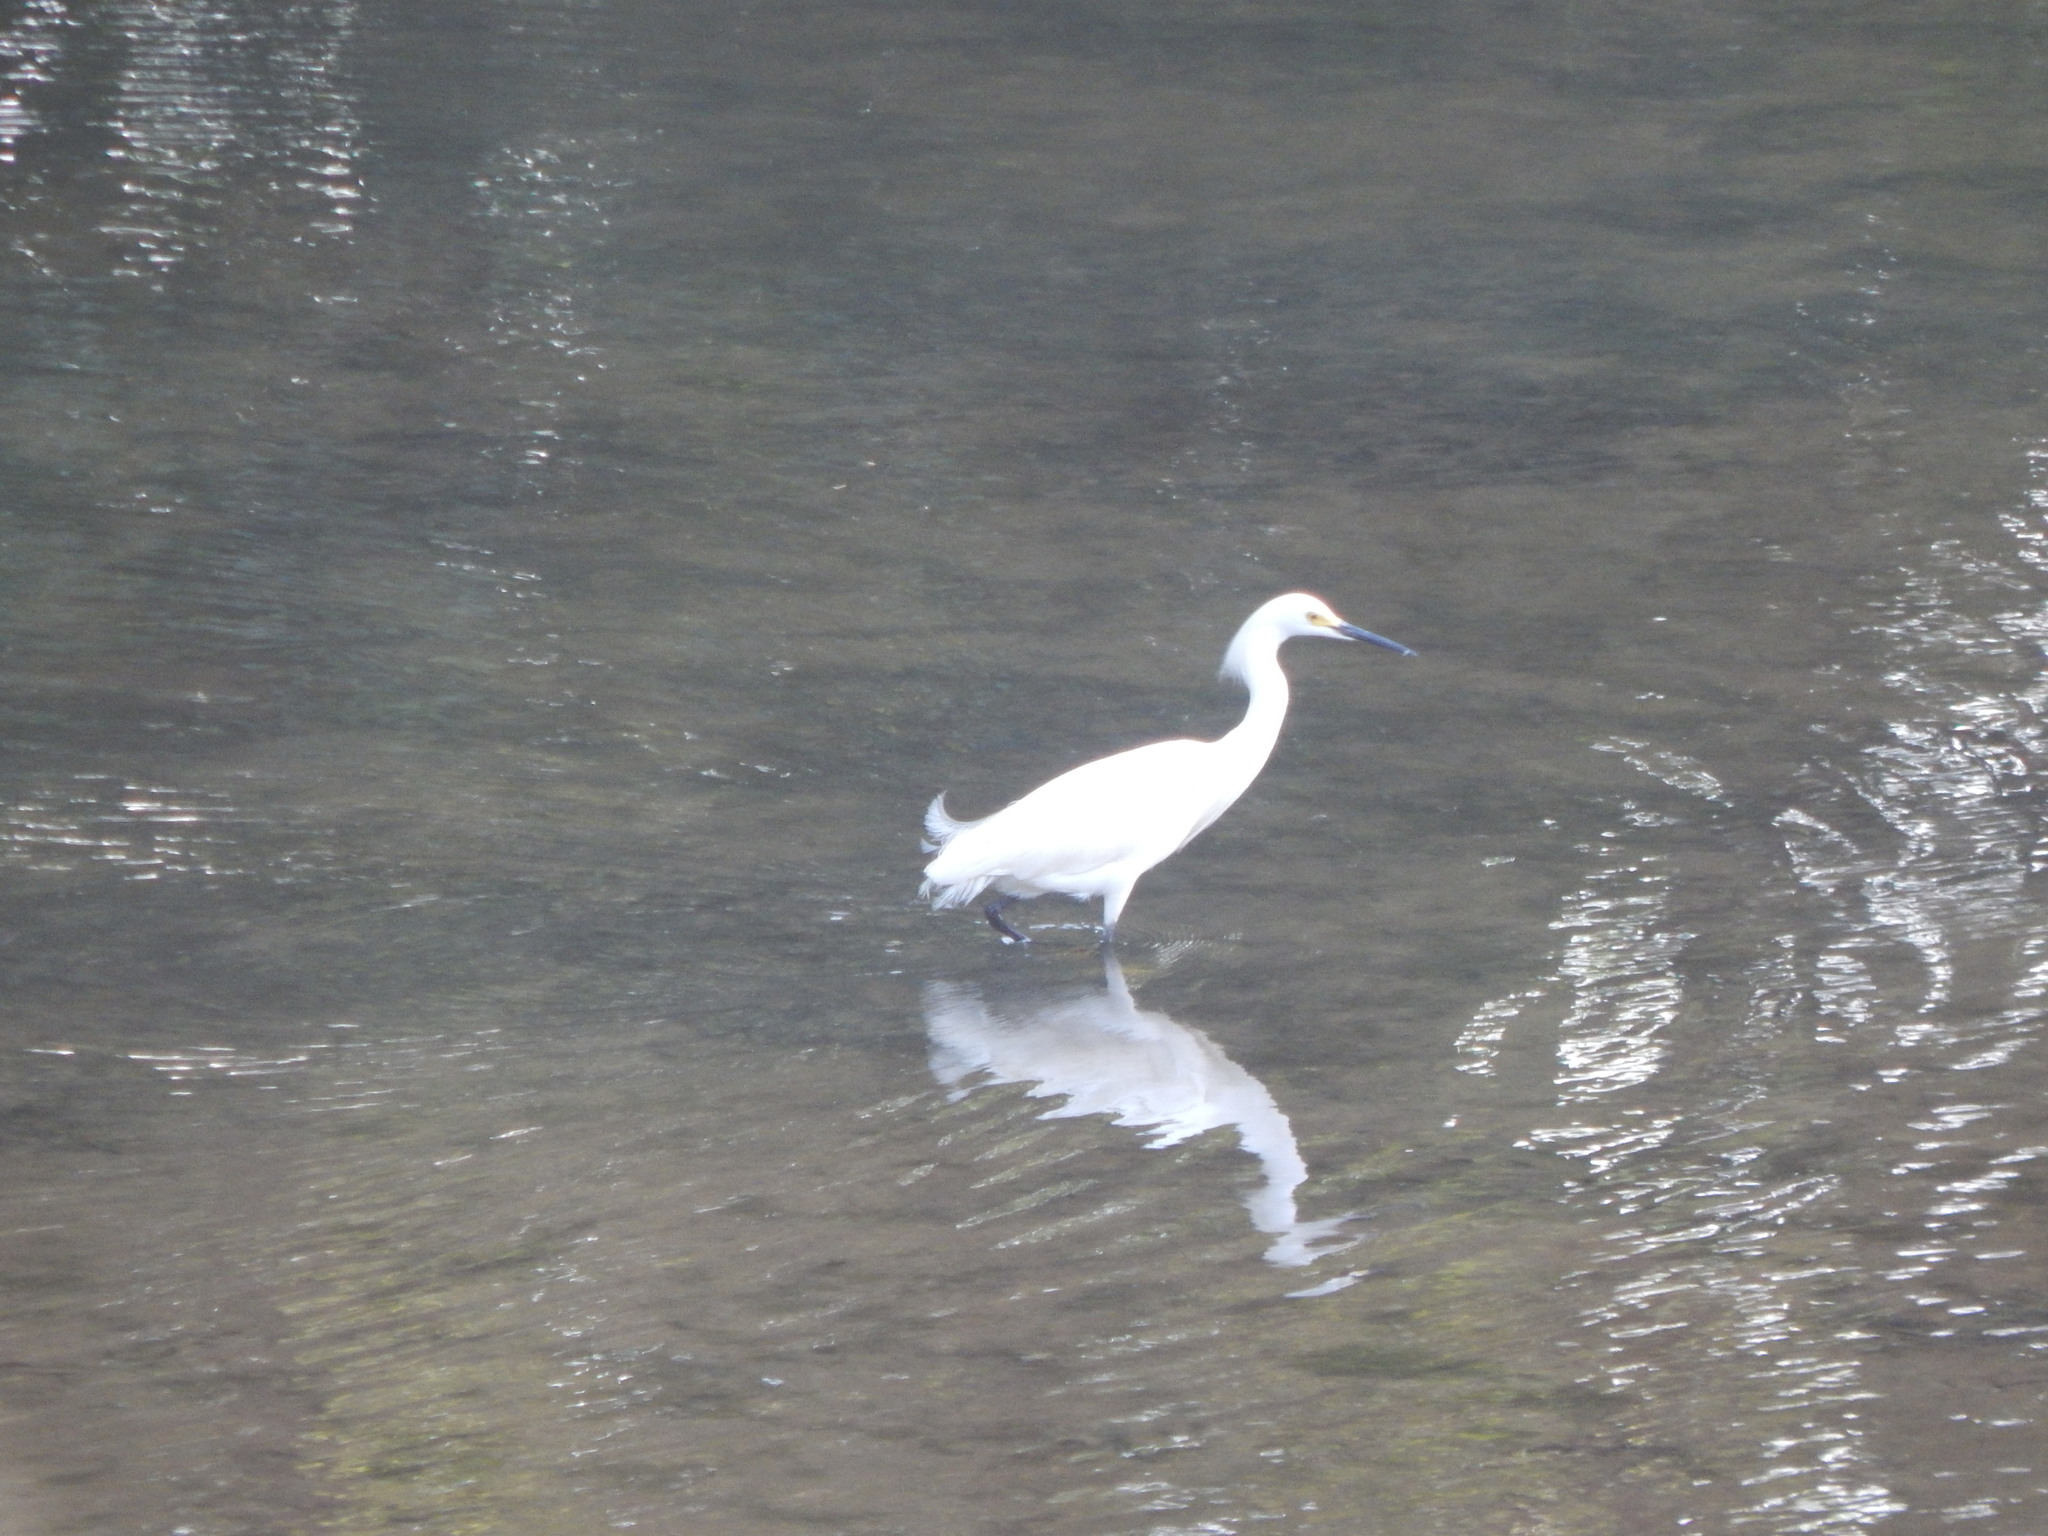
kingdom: Animalia
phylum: Chordata
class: Aves
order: Pelecaniformes
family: Ardeidae
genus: Egretta
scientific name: Egretta thula
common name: Snowy egret
